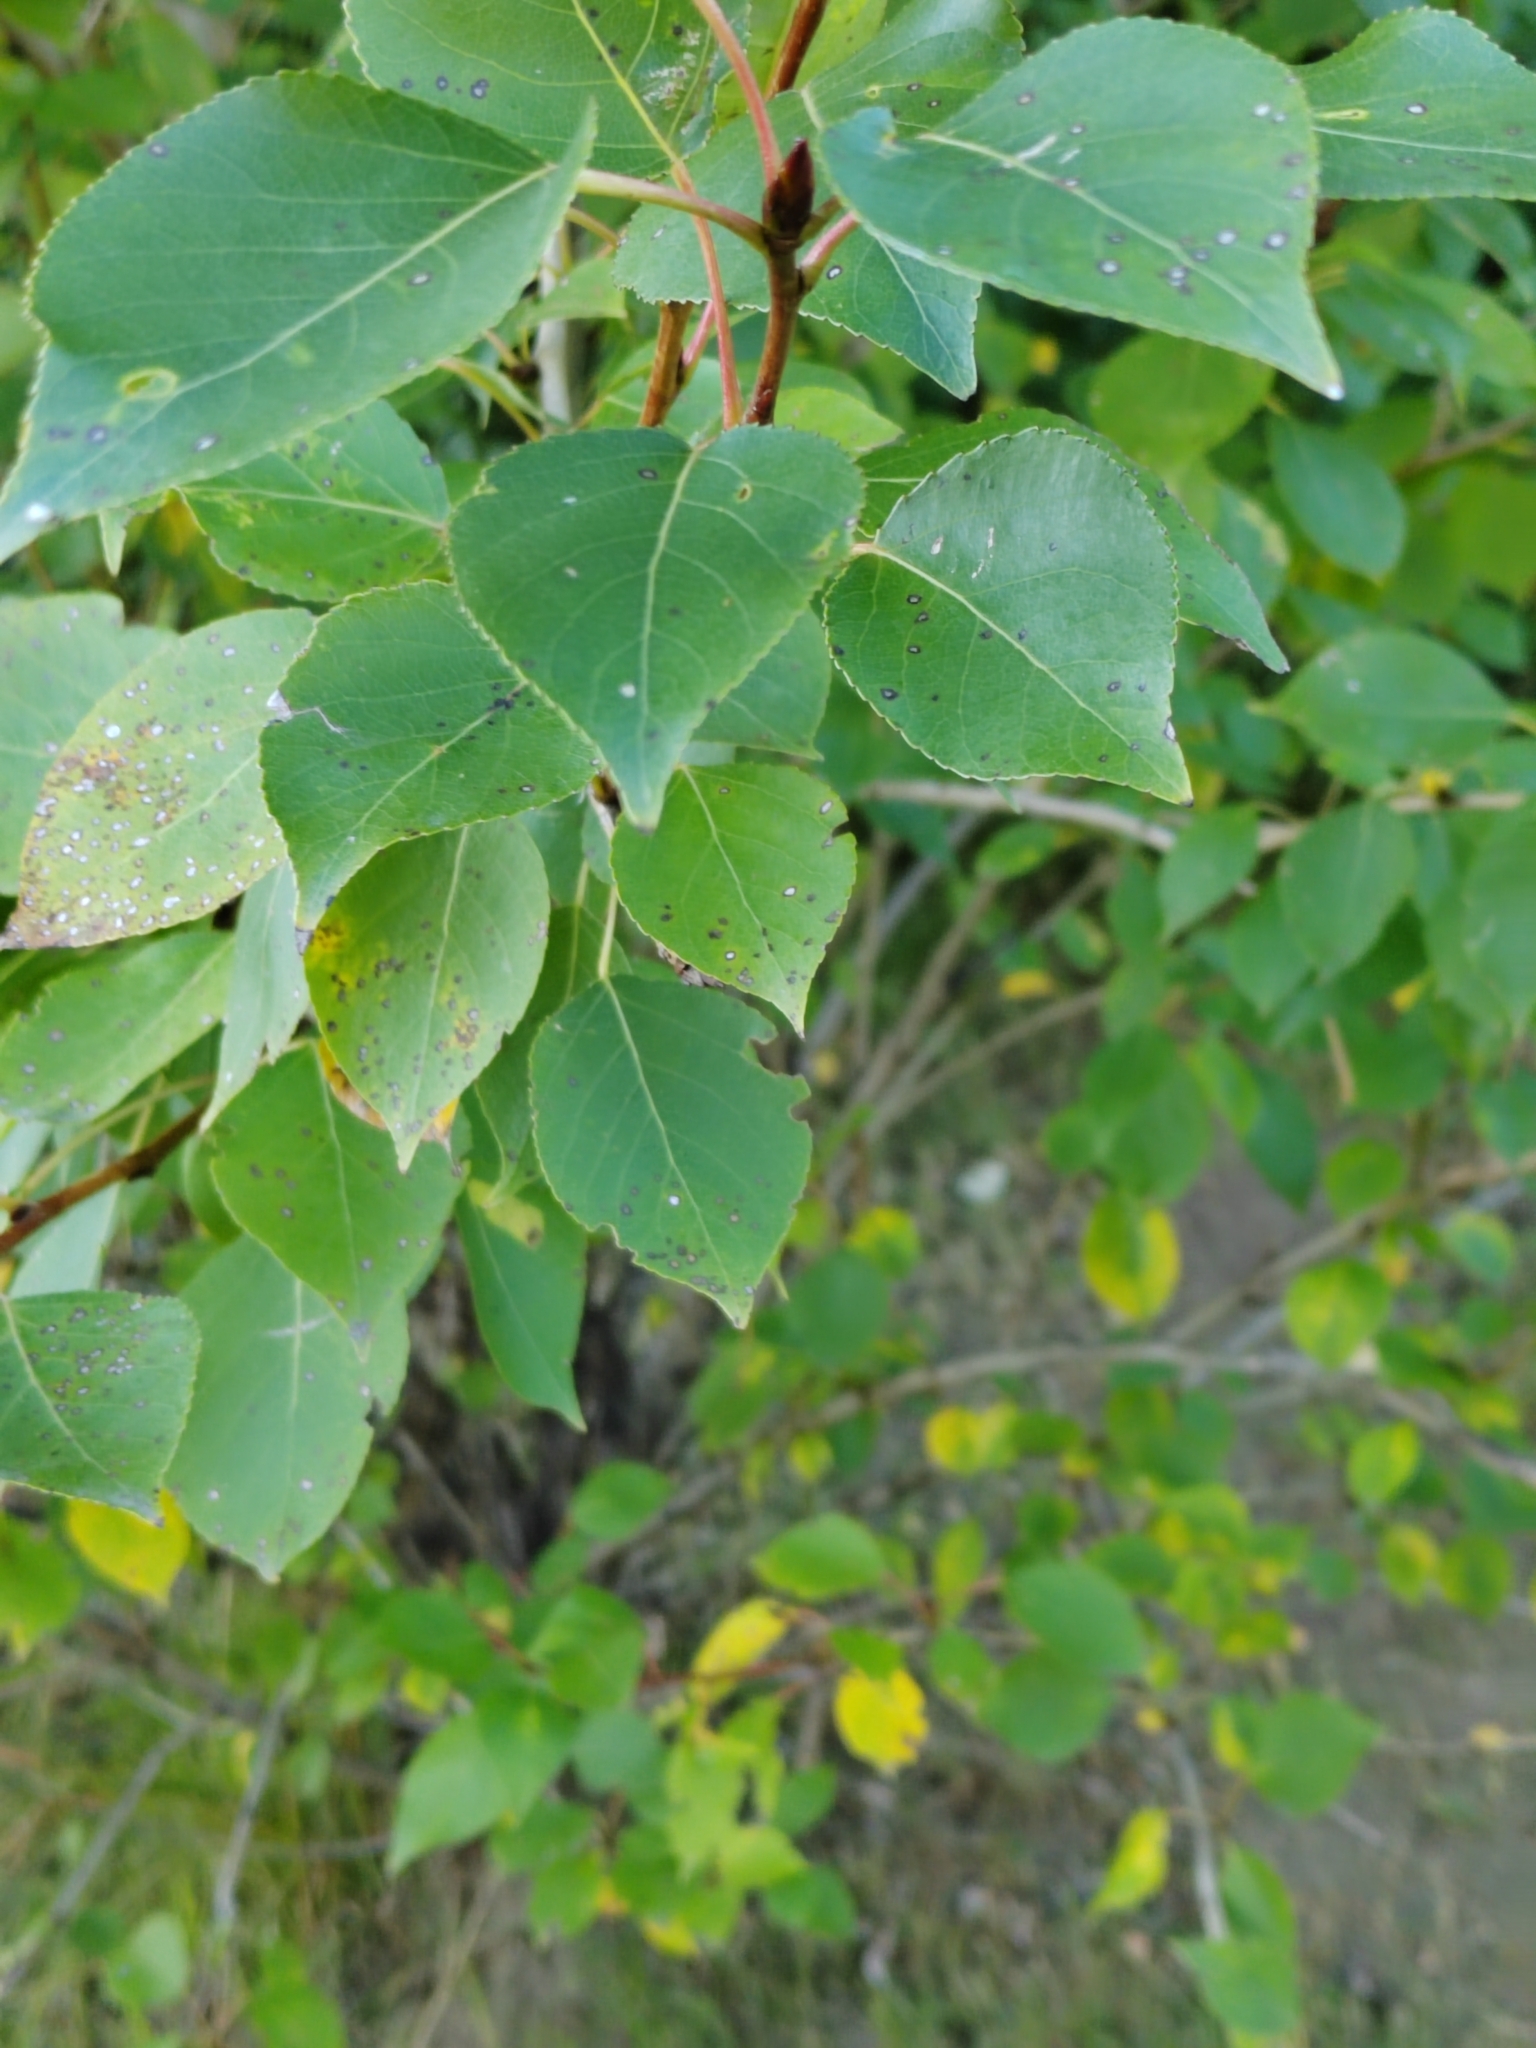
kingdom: Plantae
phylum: Tracheophyta
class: Magnoliopsida
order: Malpighiales
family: Salicaceae
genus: Populus
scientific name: Populus nigra
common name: Black poplar
